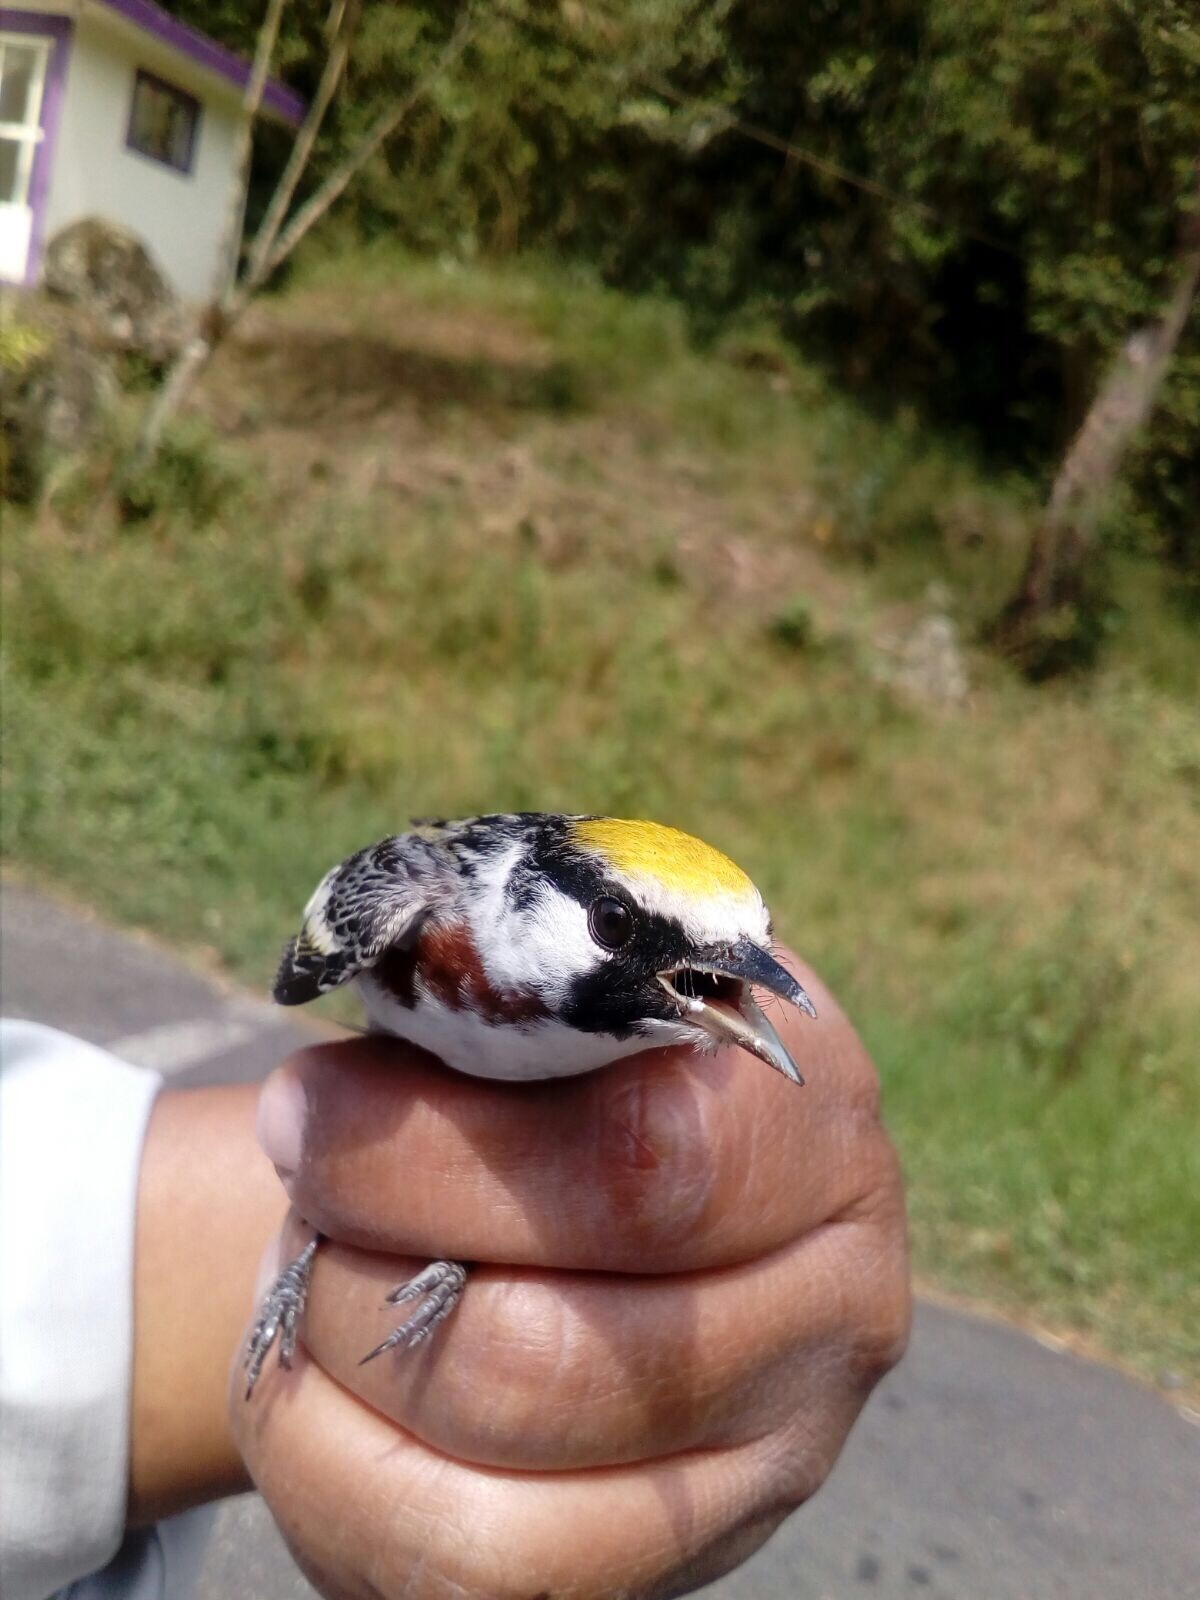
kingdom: Animalia
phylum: Chordata
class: Aves
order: Passeriformes
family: Parulidae
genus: Setophaga
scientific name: Setophaga pensylvanica
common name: Chestnut-sided warbler
